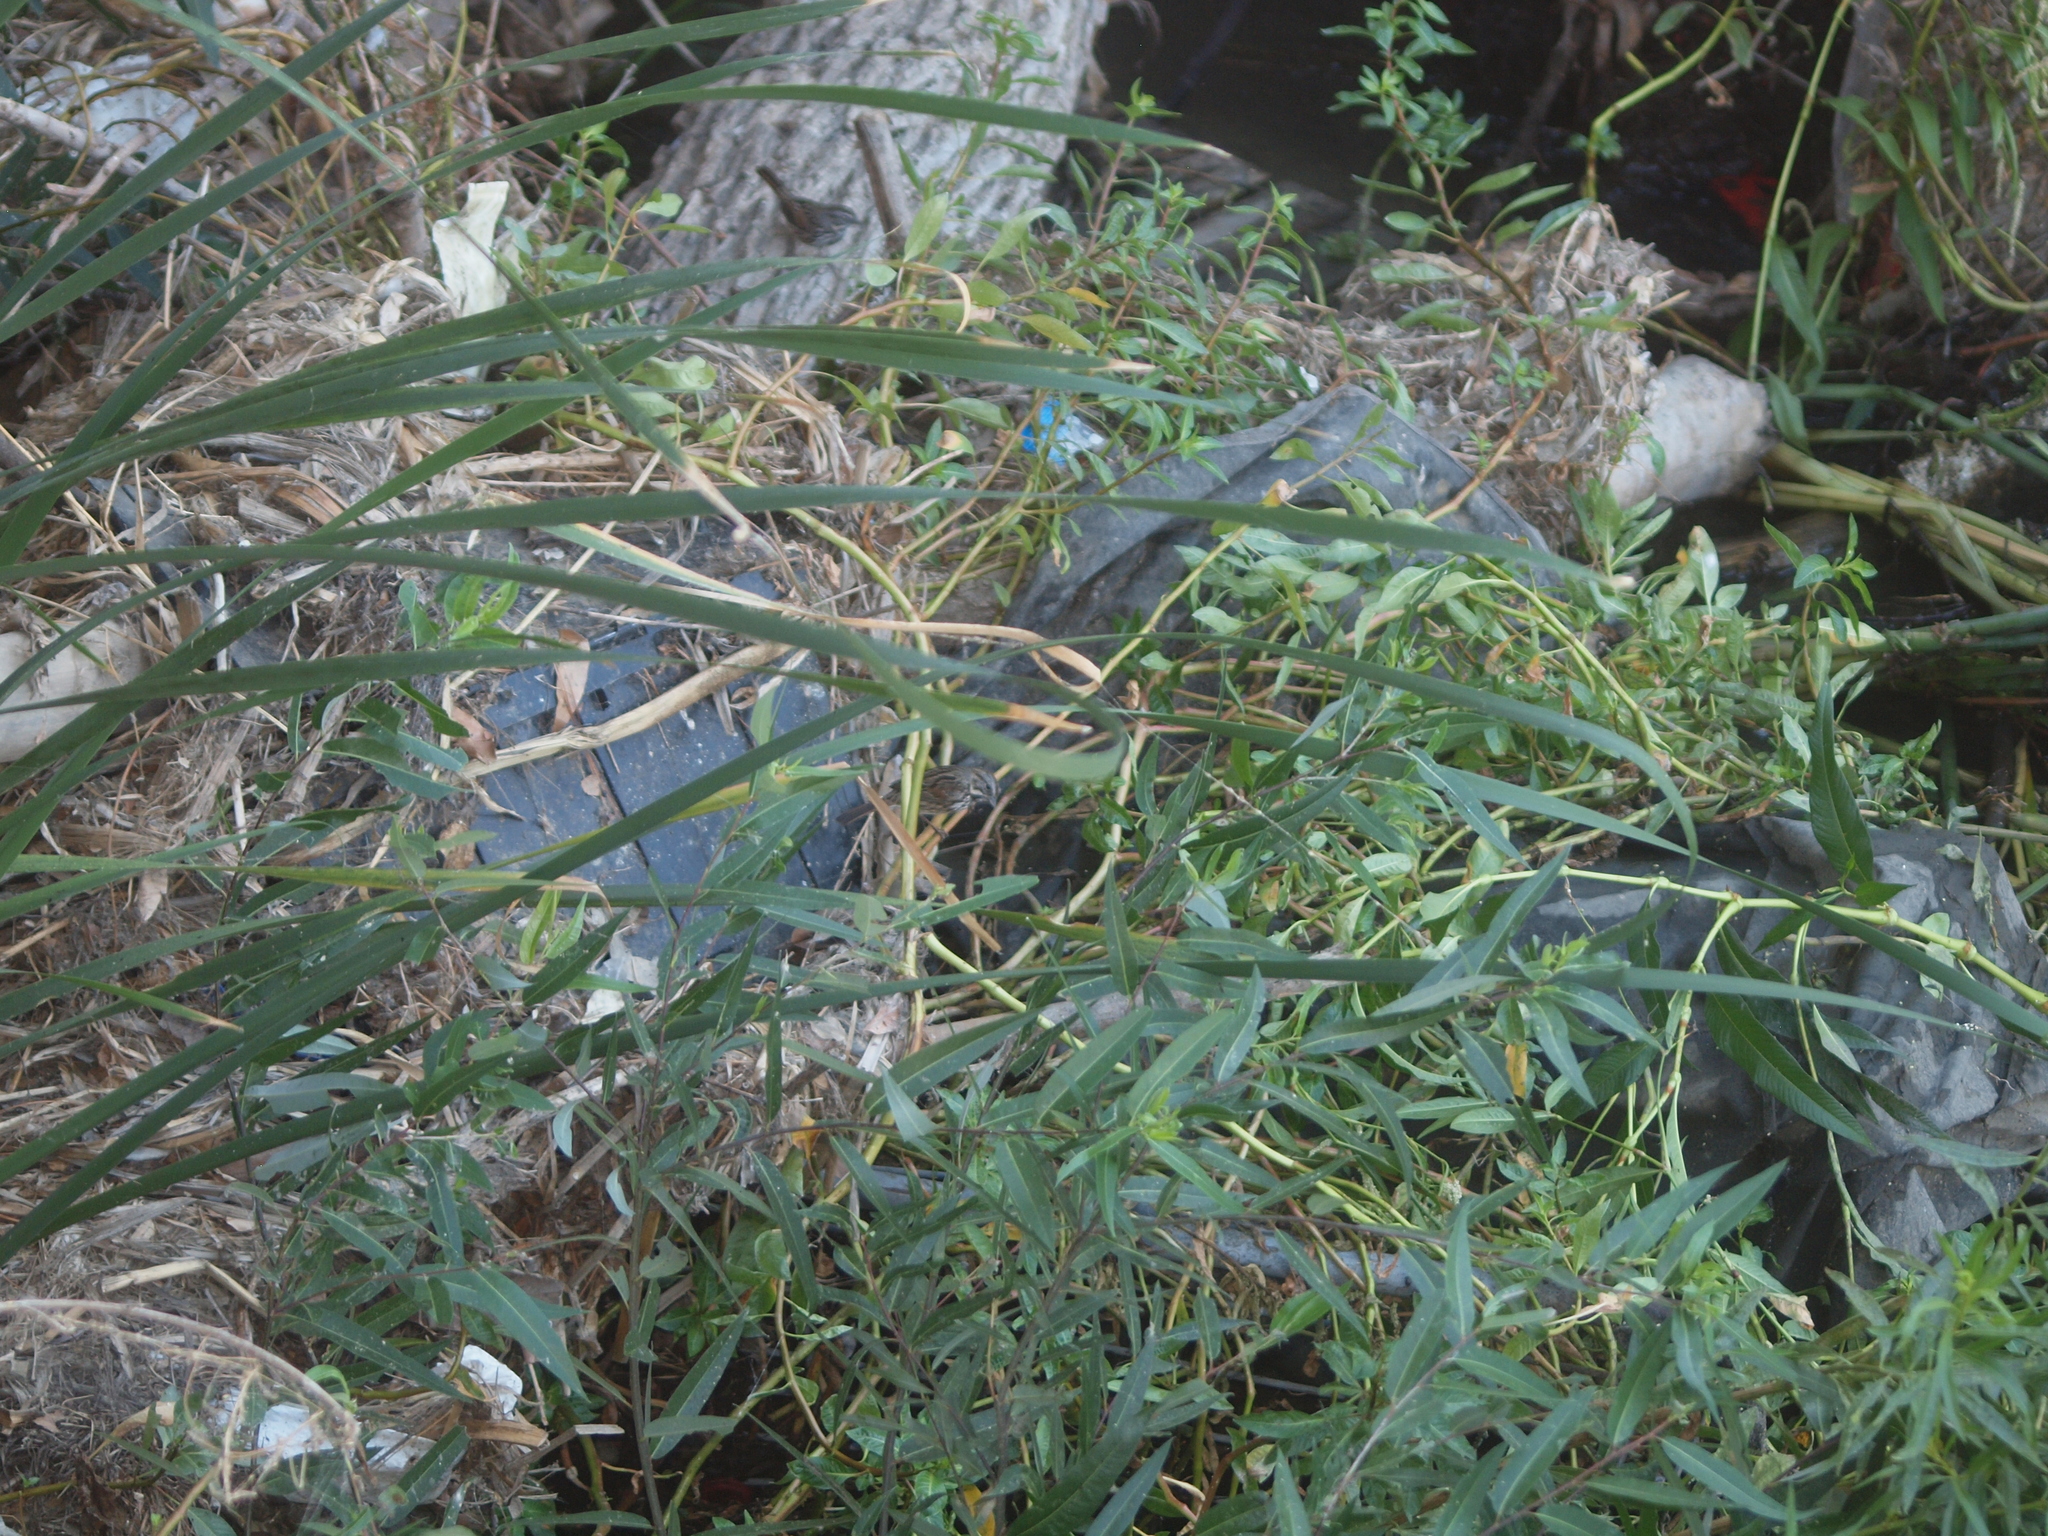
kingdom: Animalia
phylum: Chordata
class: Aves
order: Passeriformes
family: Passerellidae
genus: Melospiza
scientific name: Melospiza melodia
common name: Song sparrow
